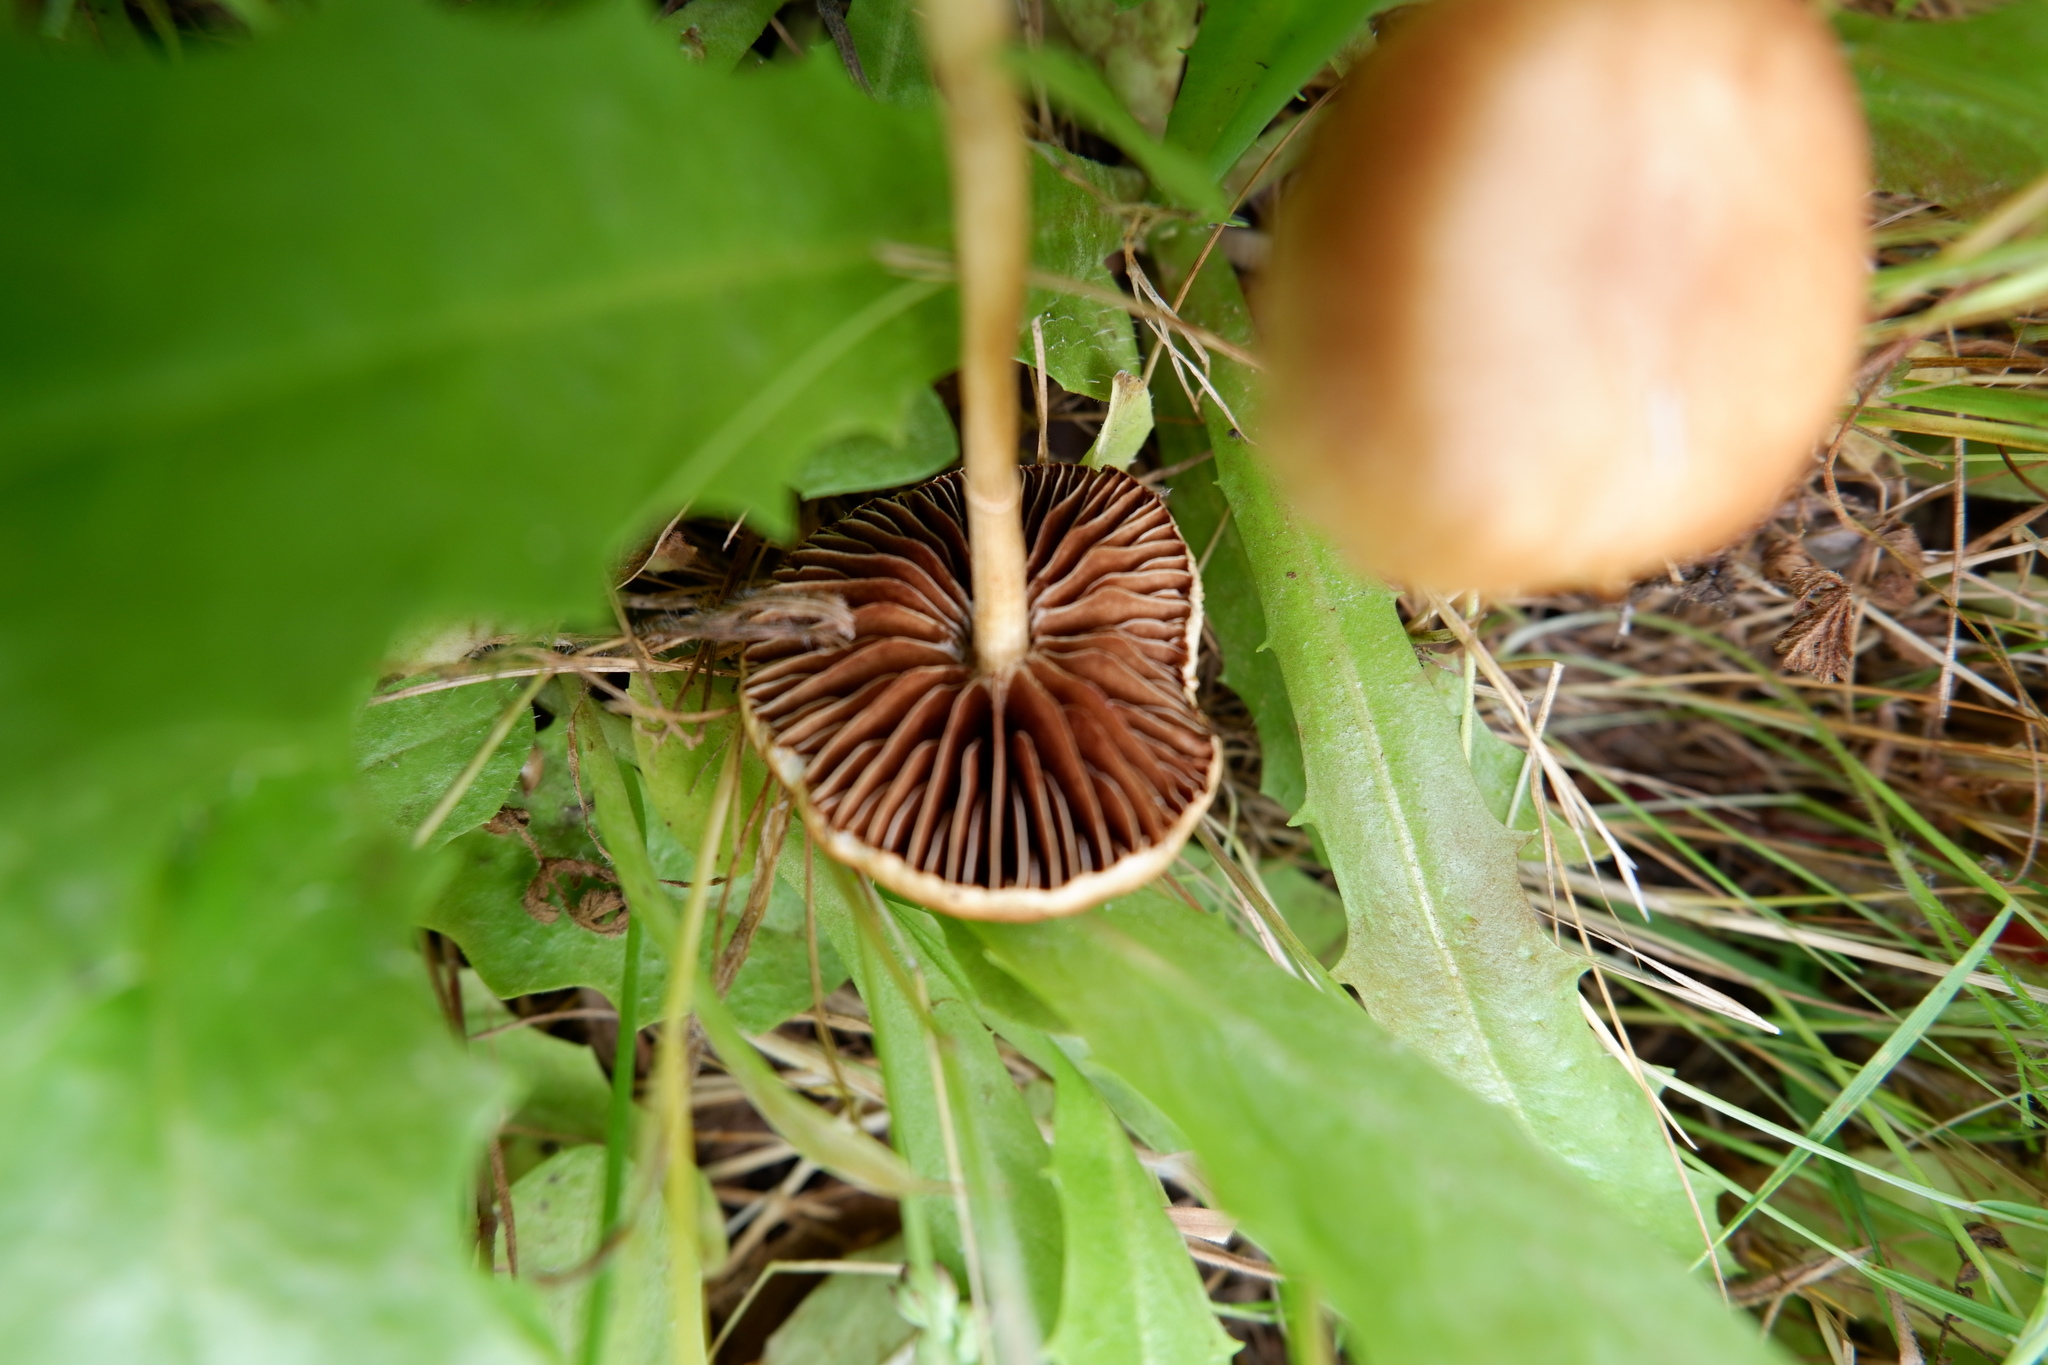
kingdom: Fungi
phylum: Basidiomycota
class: Agaricomycetes
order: Agaricales
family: Strophariaceae
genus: Agrocybe
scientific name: Agrocybe pediades
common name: Common fieldcap
